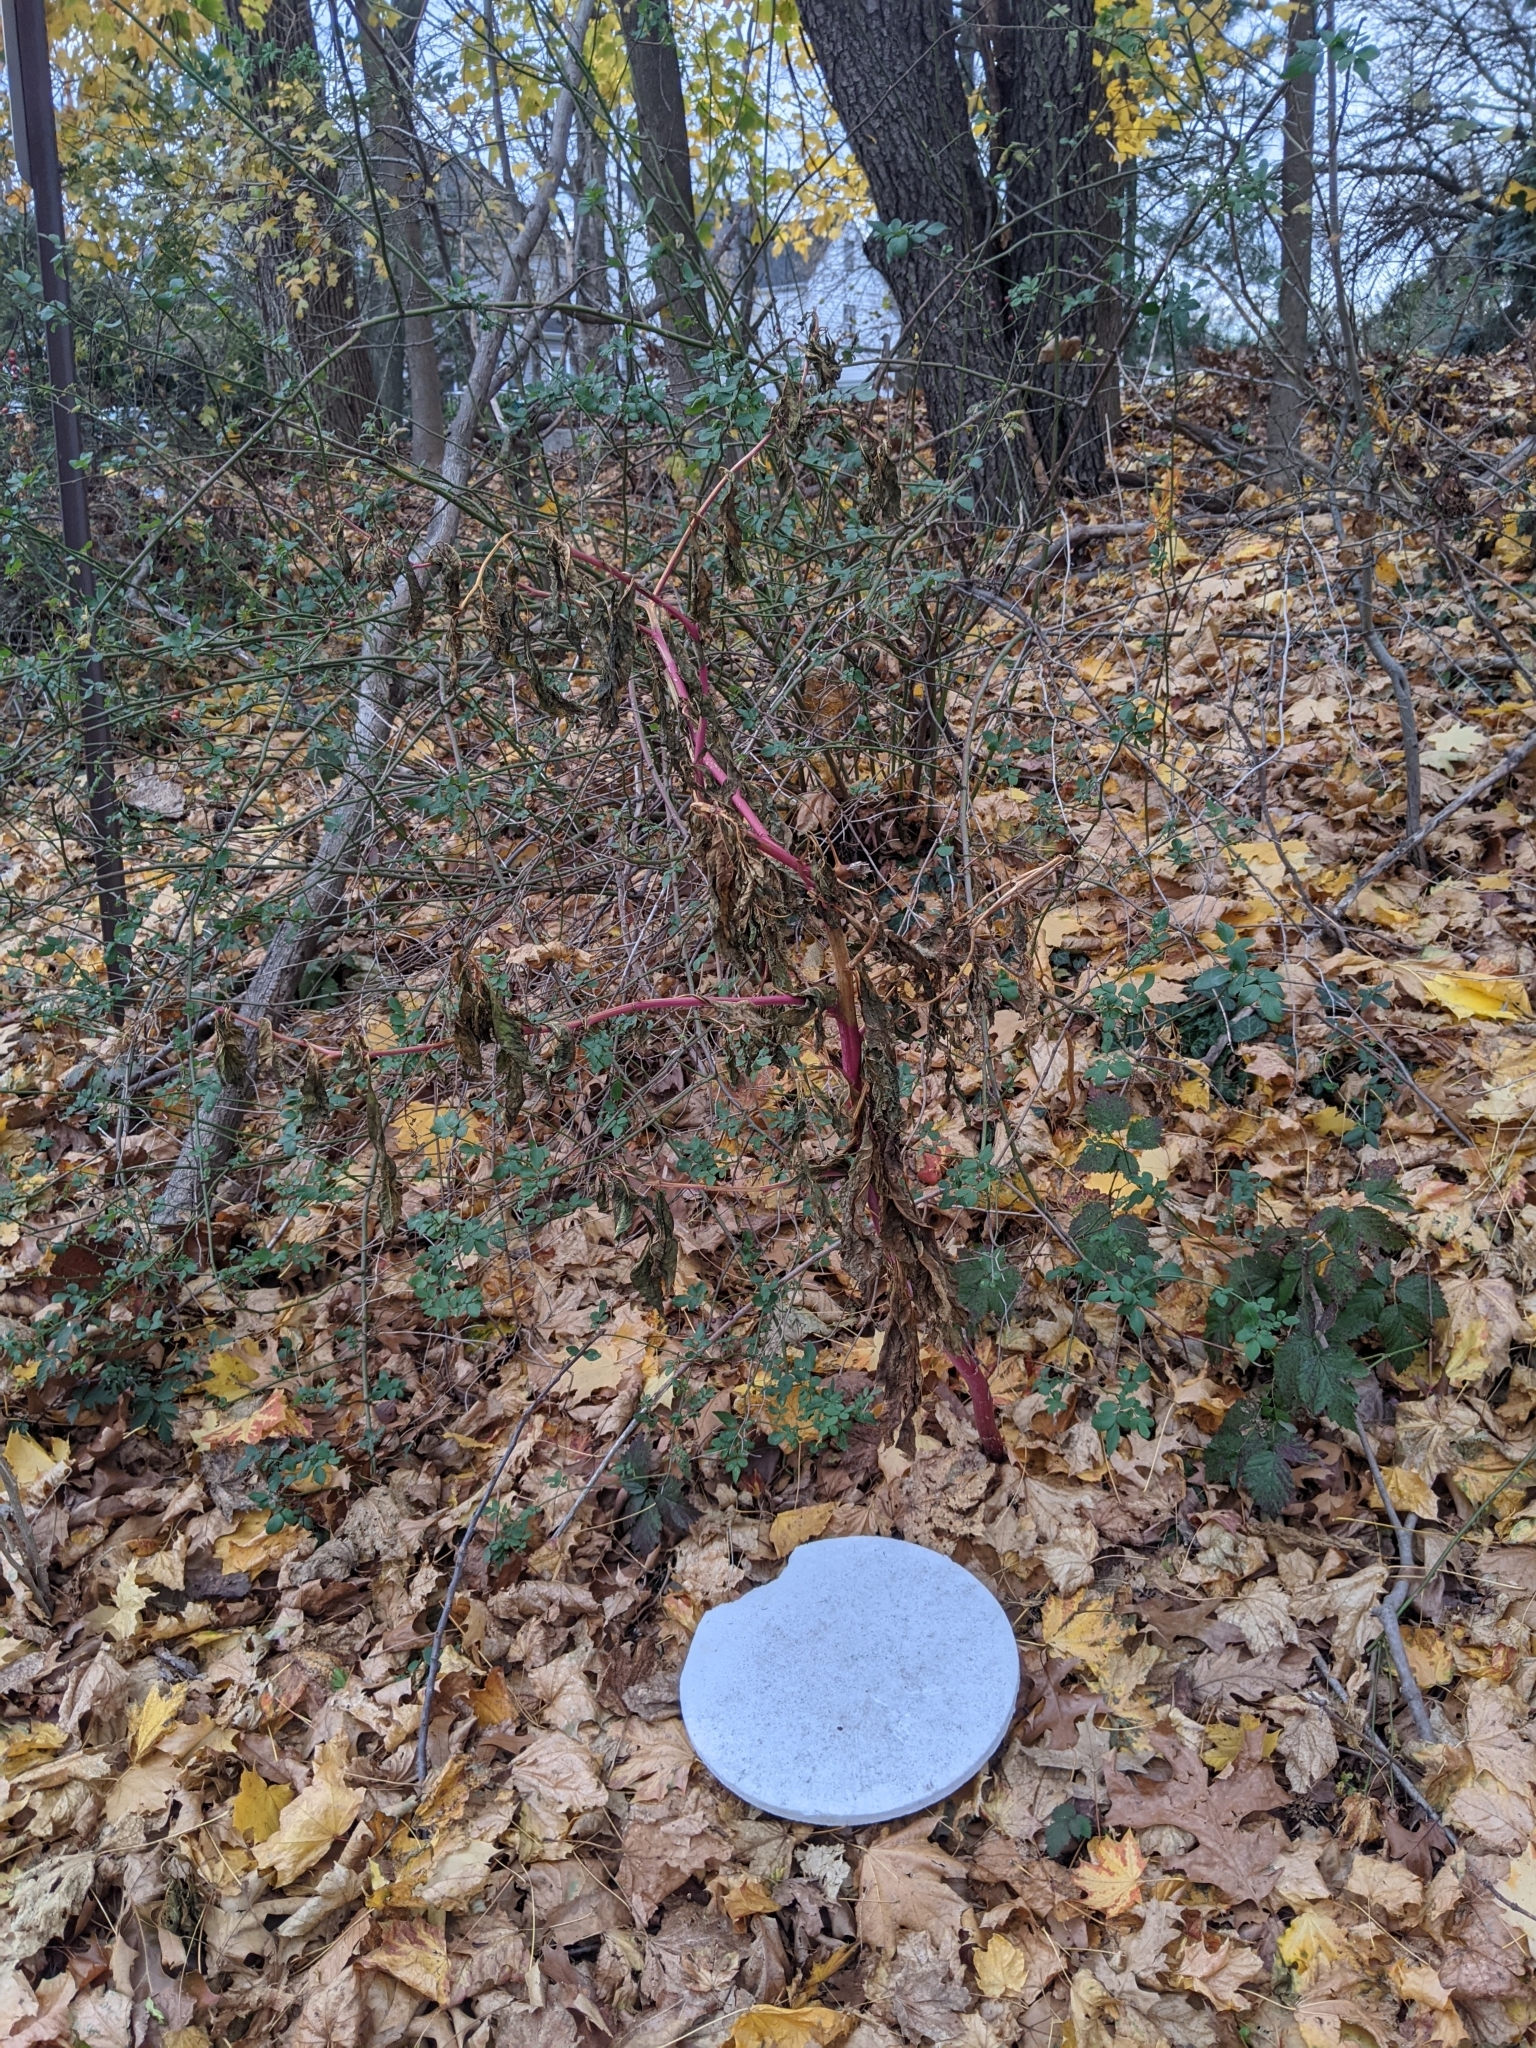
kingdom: Plantae
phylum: Tracheophyta
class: Magnoliopsida
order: Caryophyllales
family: Phytolaccaceae
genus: Phytolacca
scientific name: Phytolacca americana
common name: American pokeweed
